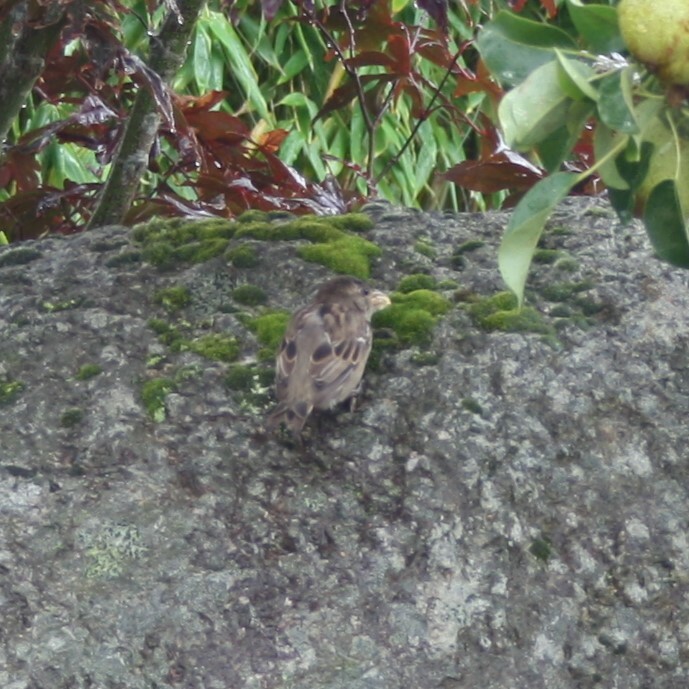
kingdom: Animalia
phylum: Chordata
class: Aves
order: Passeriformes
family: Passeridae
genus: Passer
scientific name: Passer domesticus
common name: House sparrow
